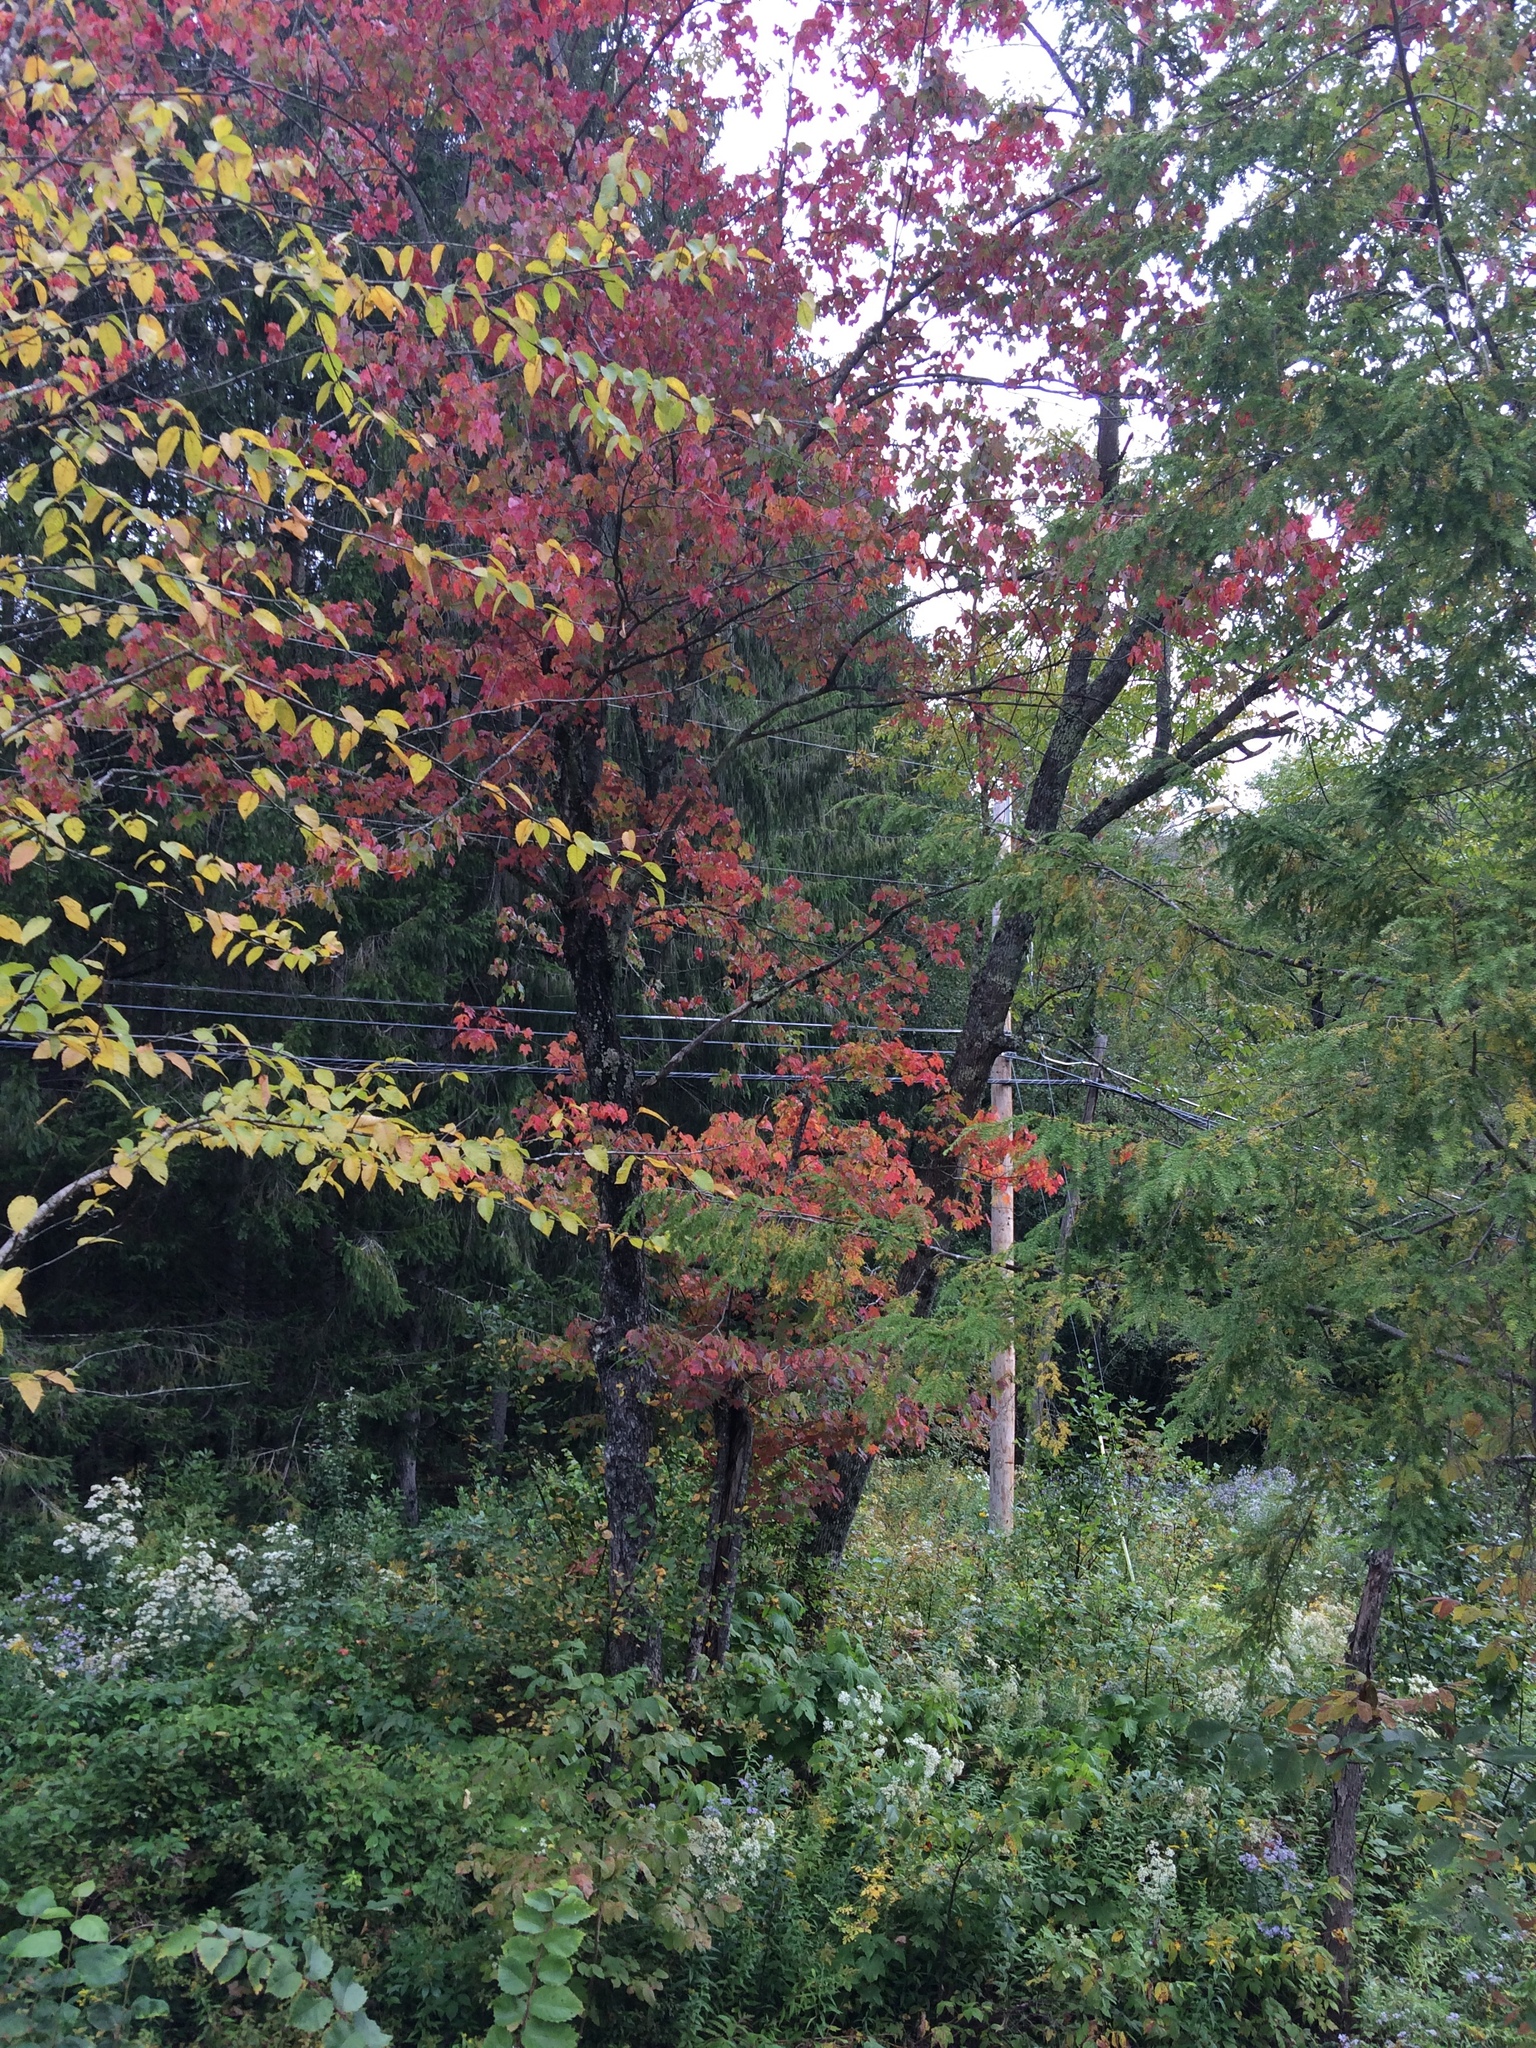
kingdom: Plantae
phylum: Tracheophyta
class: Magnoliopsida
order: Sapindales
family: Sapindaceae
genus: Acer
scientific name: Acer rubrum
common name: Red maple
